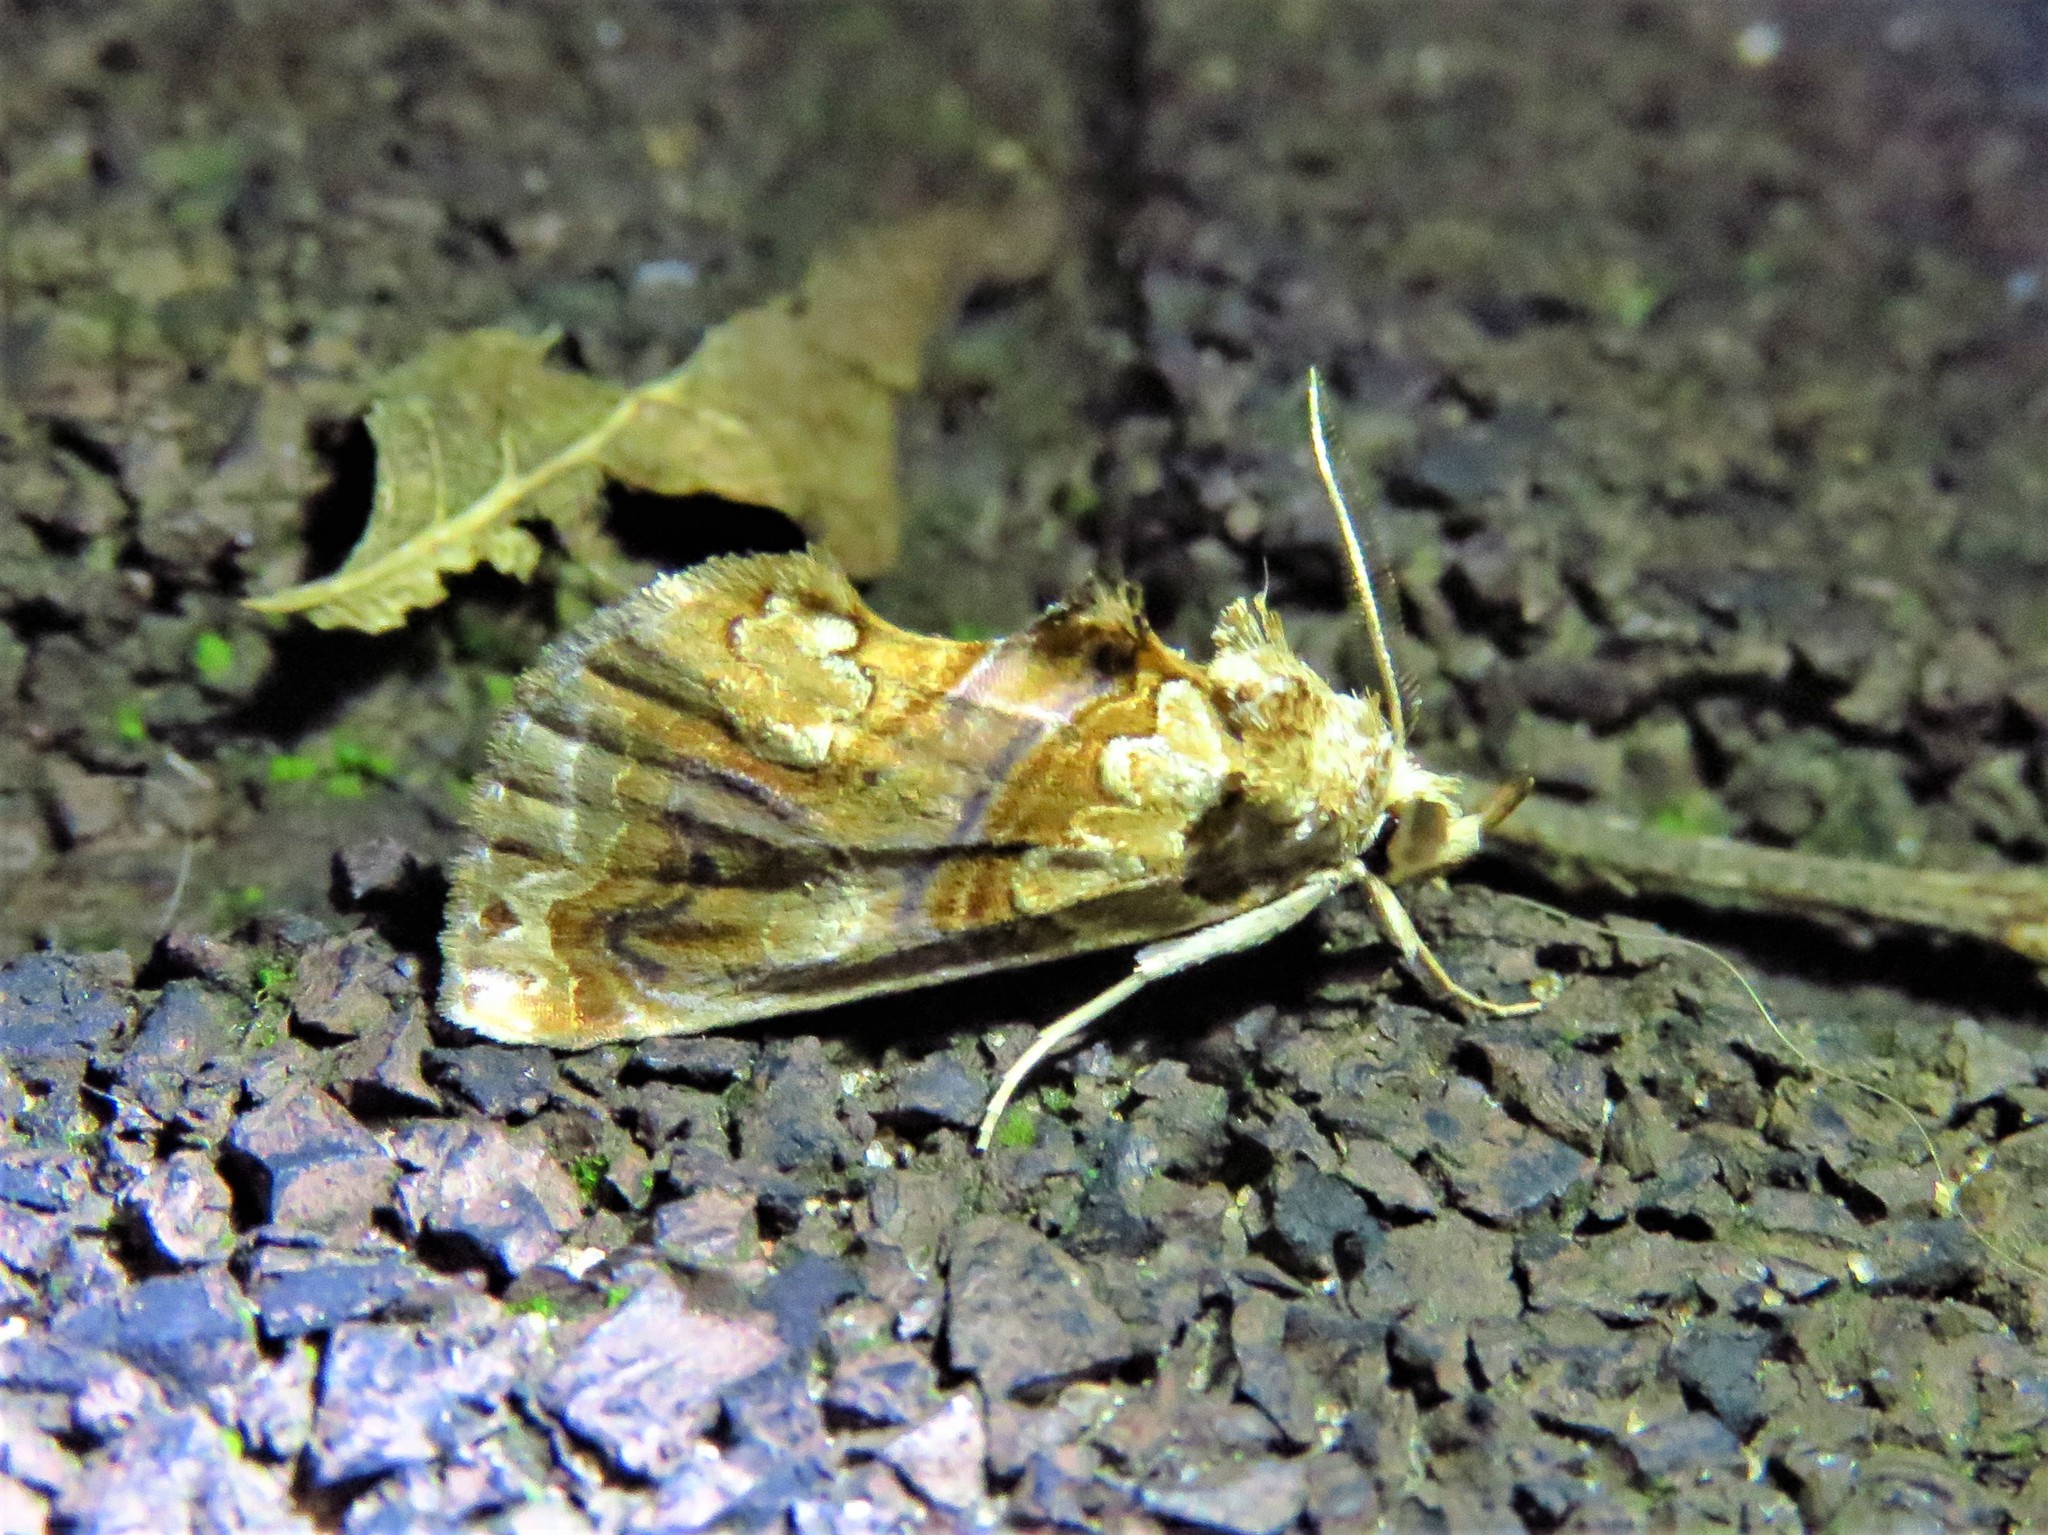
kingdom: Animalia
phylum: Arthropoda
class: Insecta
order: Lepidoptera
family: Erebidae
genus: Plusiodonta
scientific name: Plusiodonta compressipalpis
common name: Moonseed moth
